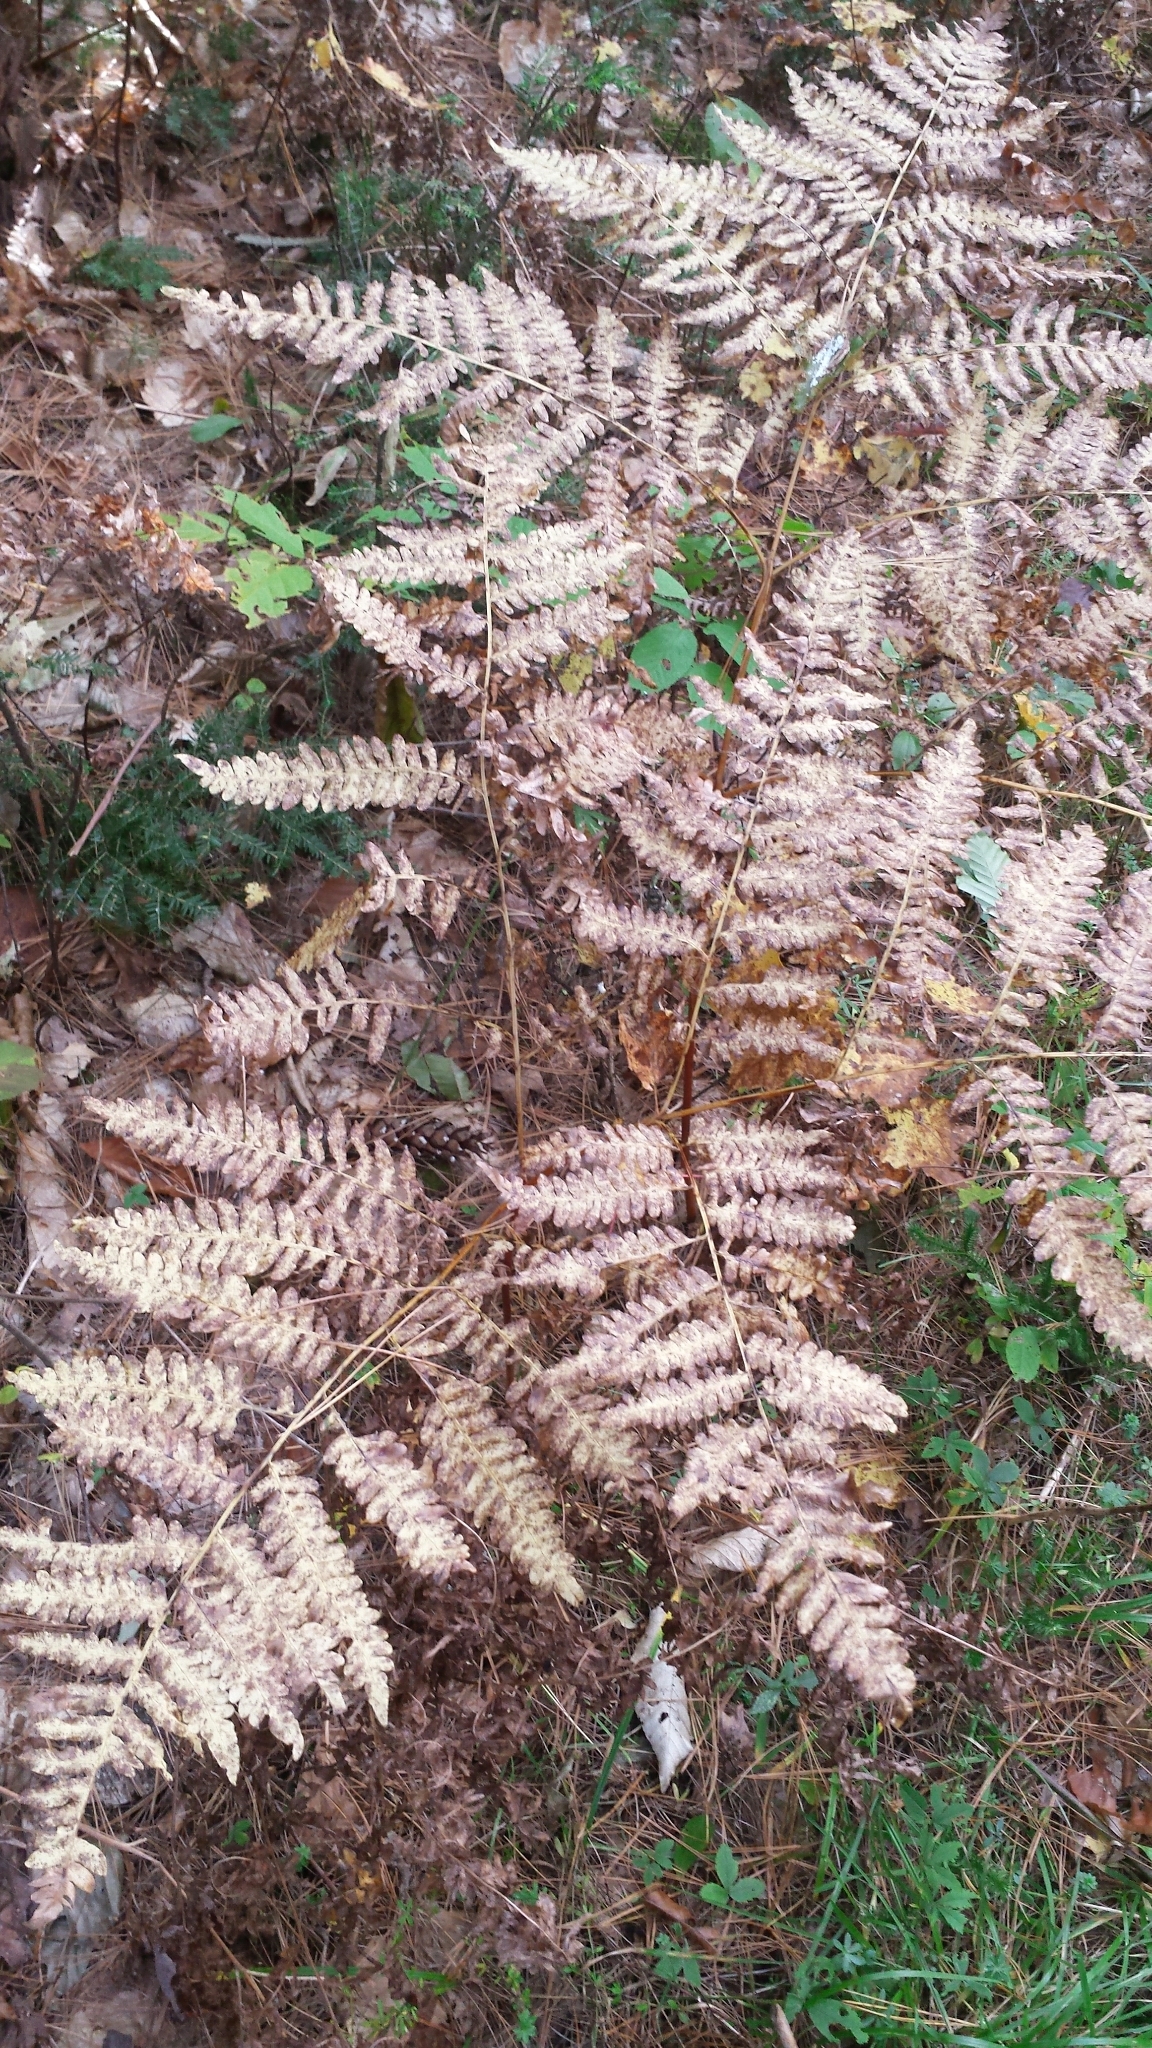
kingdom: Plantae
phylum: Tracheophyta
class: Polypodiopsida
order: Polypodiales
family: Dennstaedtiaceae
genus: Pteridium
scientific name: Pteridium aquilinum
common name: Bracken
